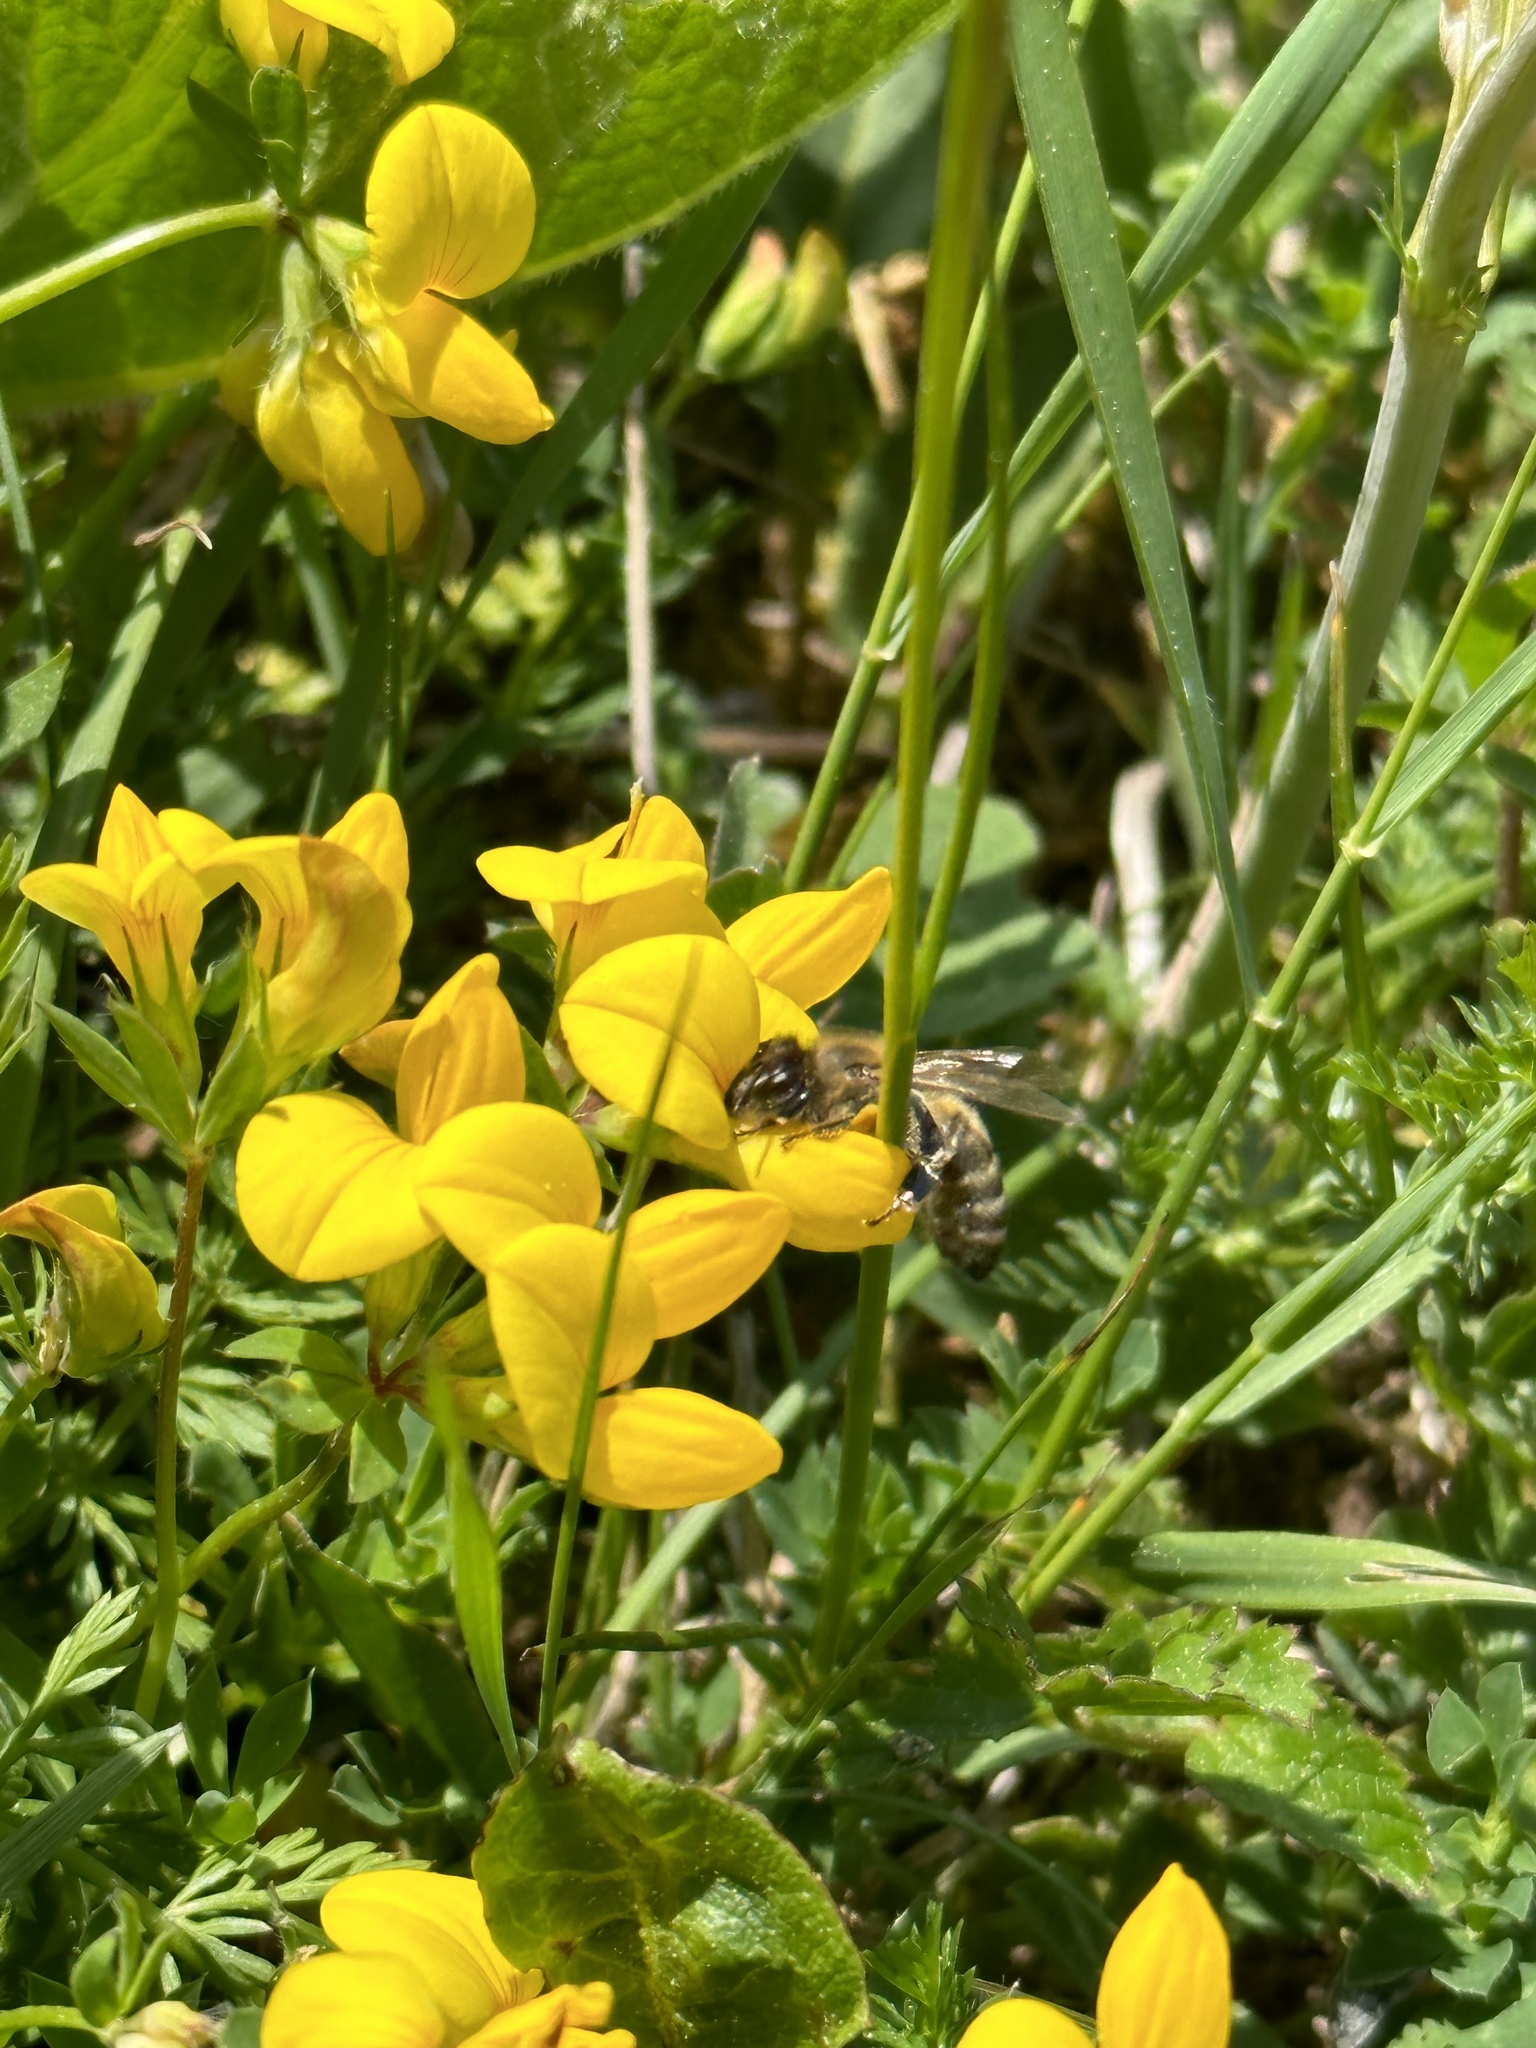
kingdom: Animalia
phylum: Arthropoda
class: Insecta
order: Hymenoptera
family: Apidae
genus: Apis
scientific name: Apis mellifera
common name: Honey bee
